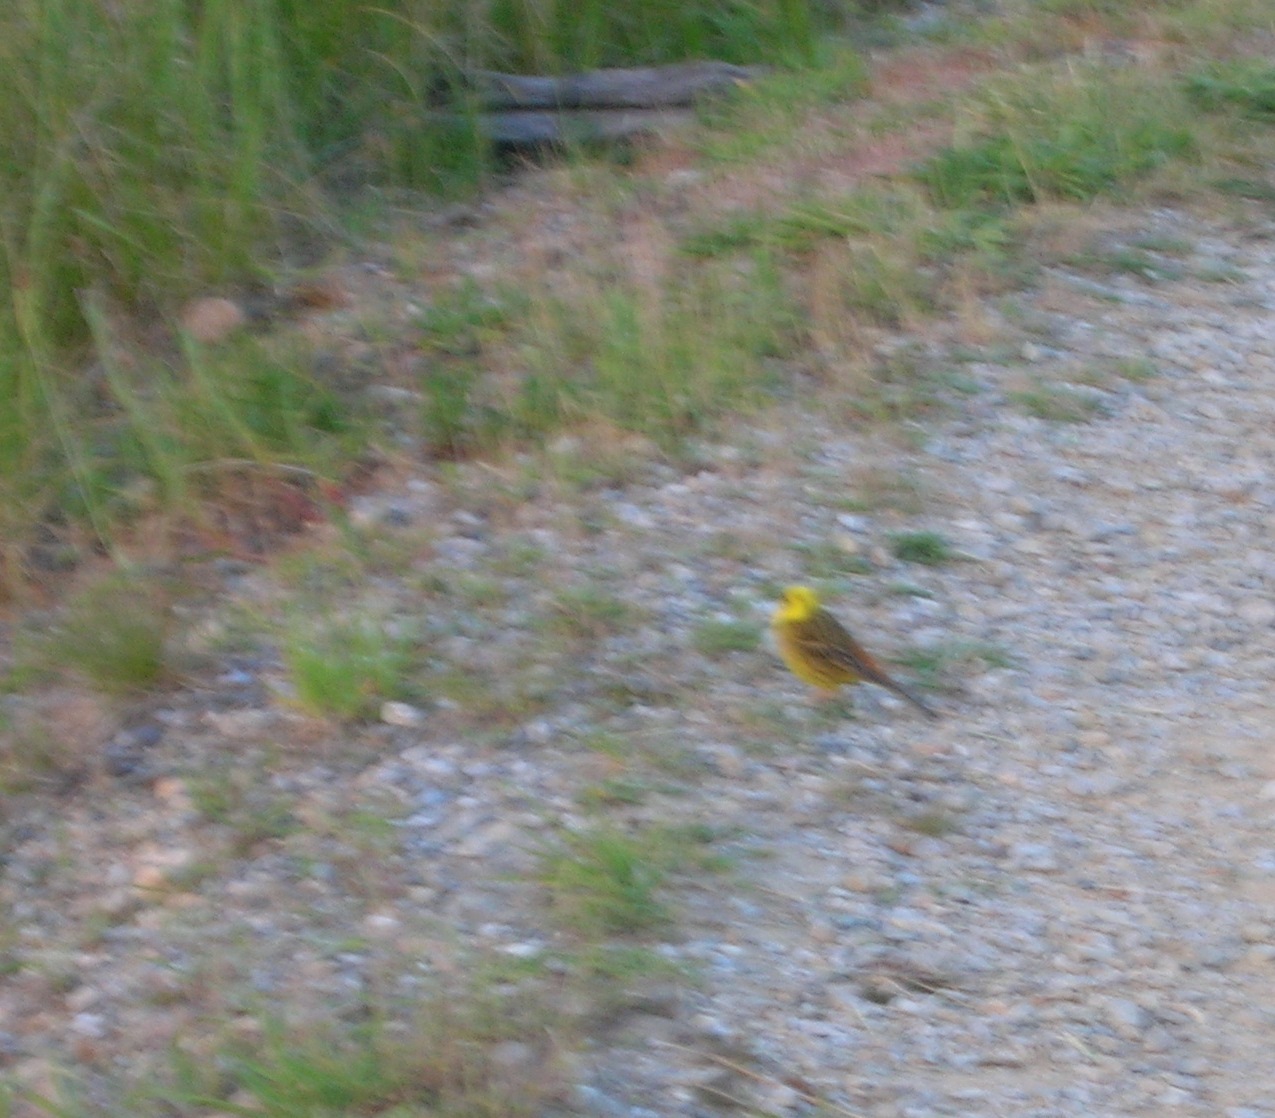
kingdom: Animalia
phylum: Chordata
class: Aves
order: Passeriformes
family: Emberizidae
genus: Emberiza
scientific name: Emberiza citrinella
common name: Yellowhammer
